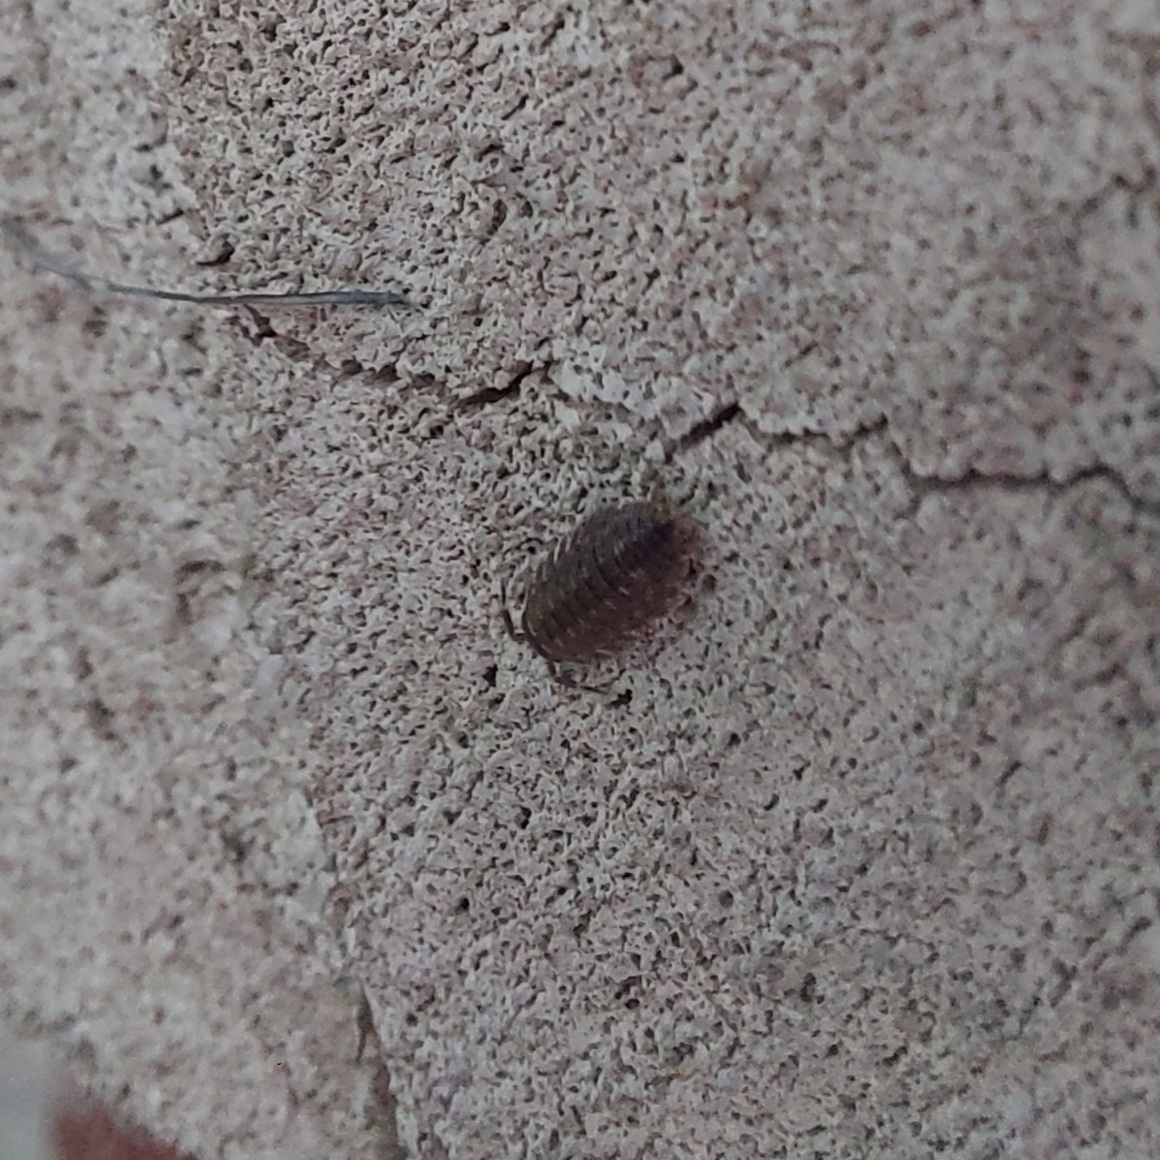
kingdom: Animalia
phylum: Arthropoda
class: Malacostraca
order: Isopoda
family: Porcellionidae
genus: Porcellio
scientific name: Porcellio spinicornis
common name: Painted woodlouse
